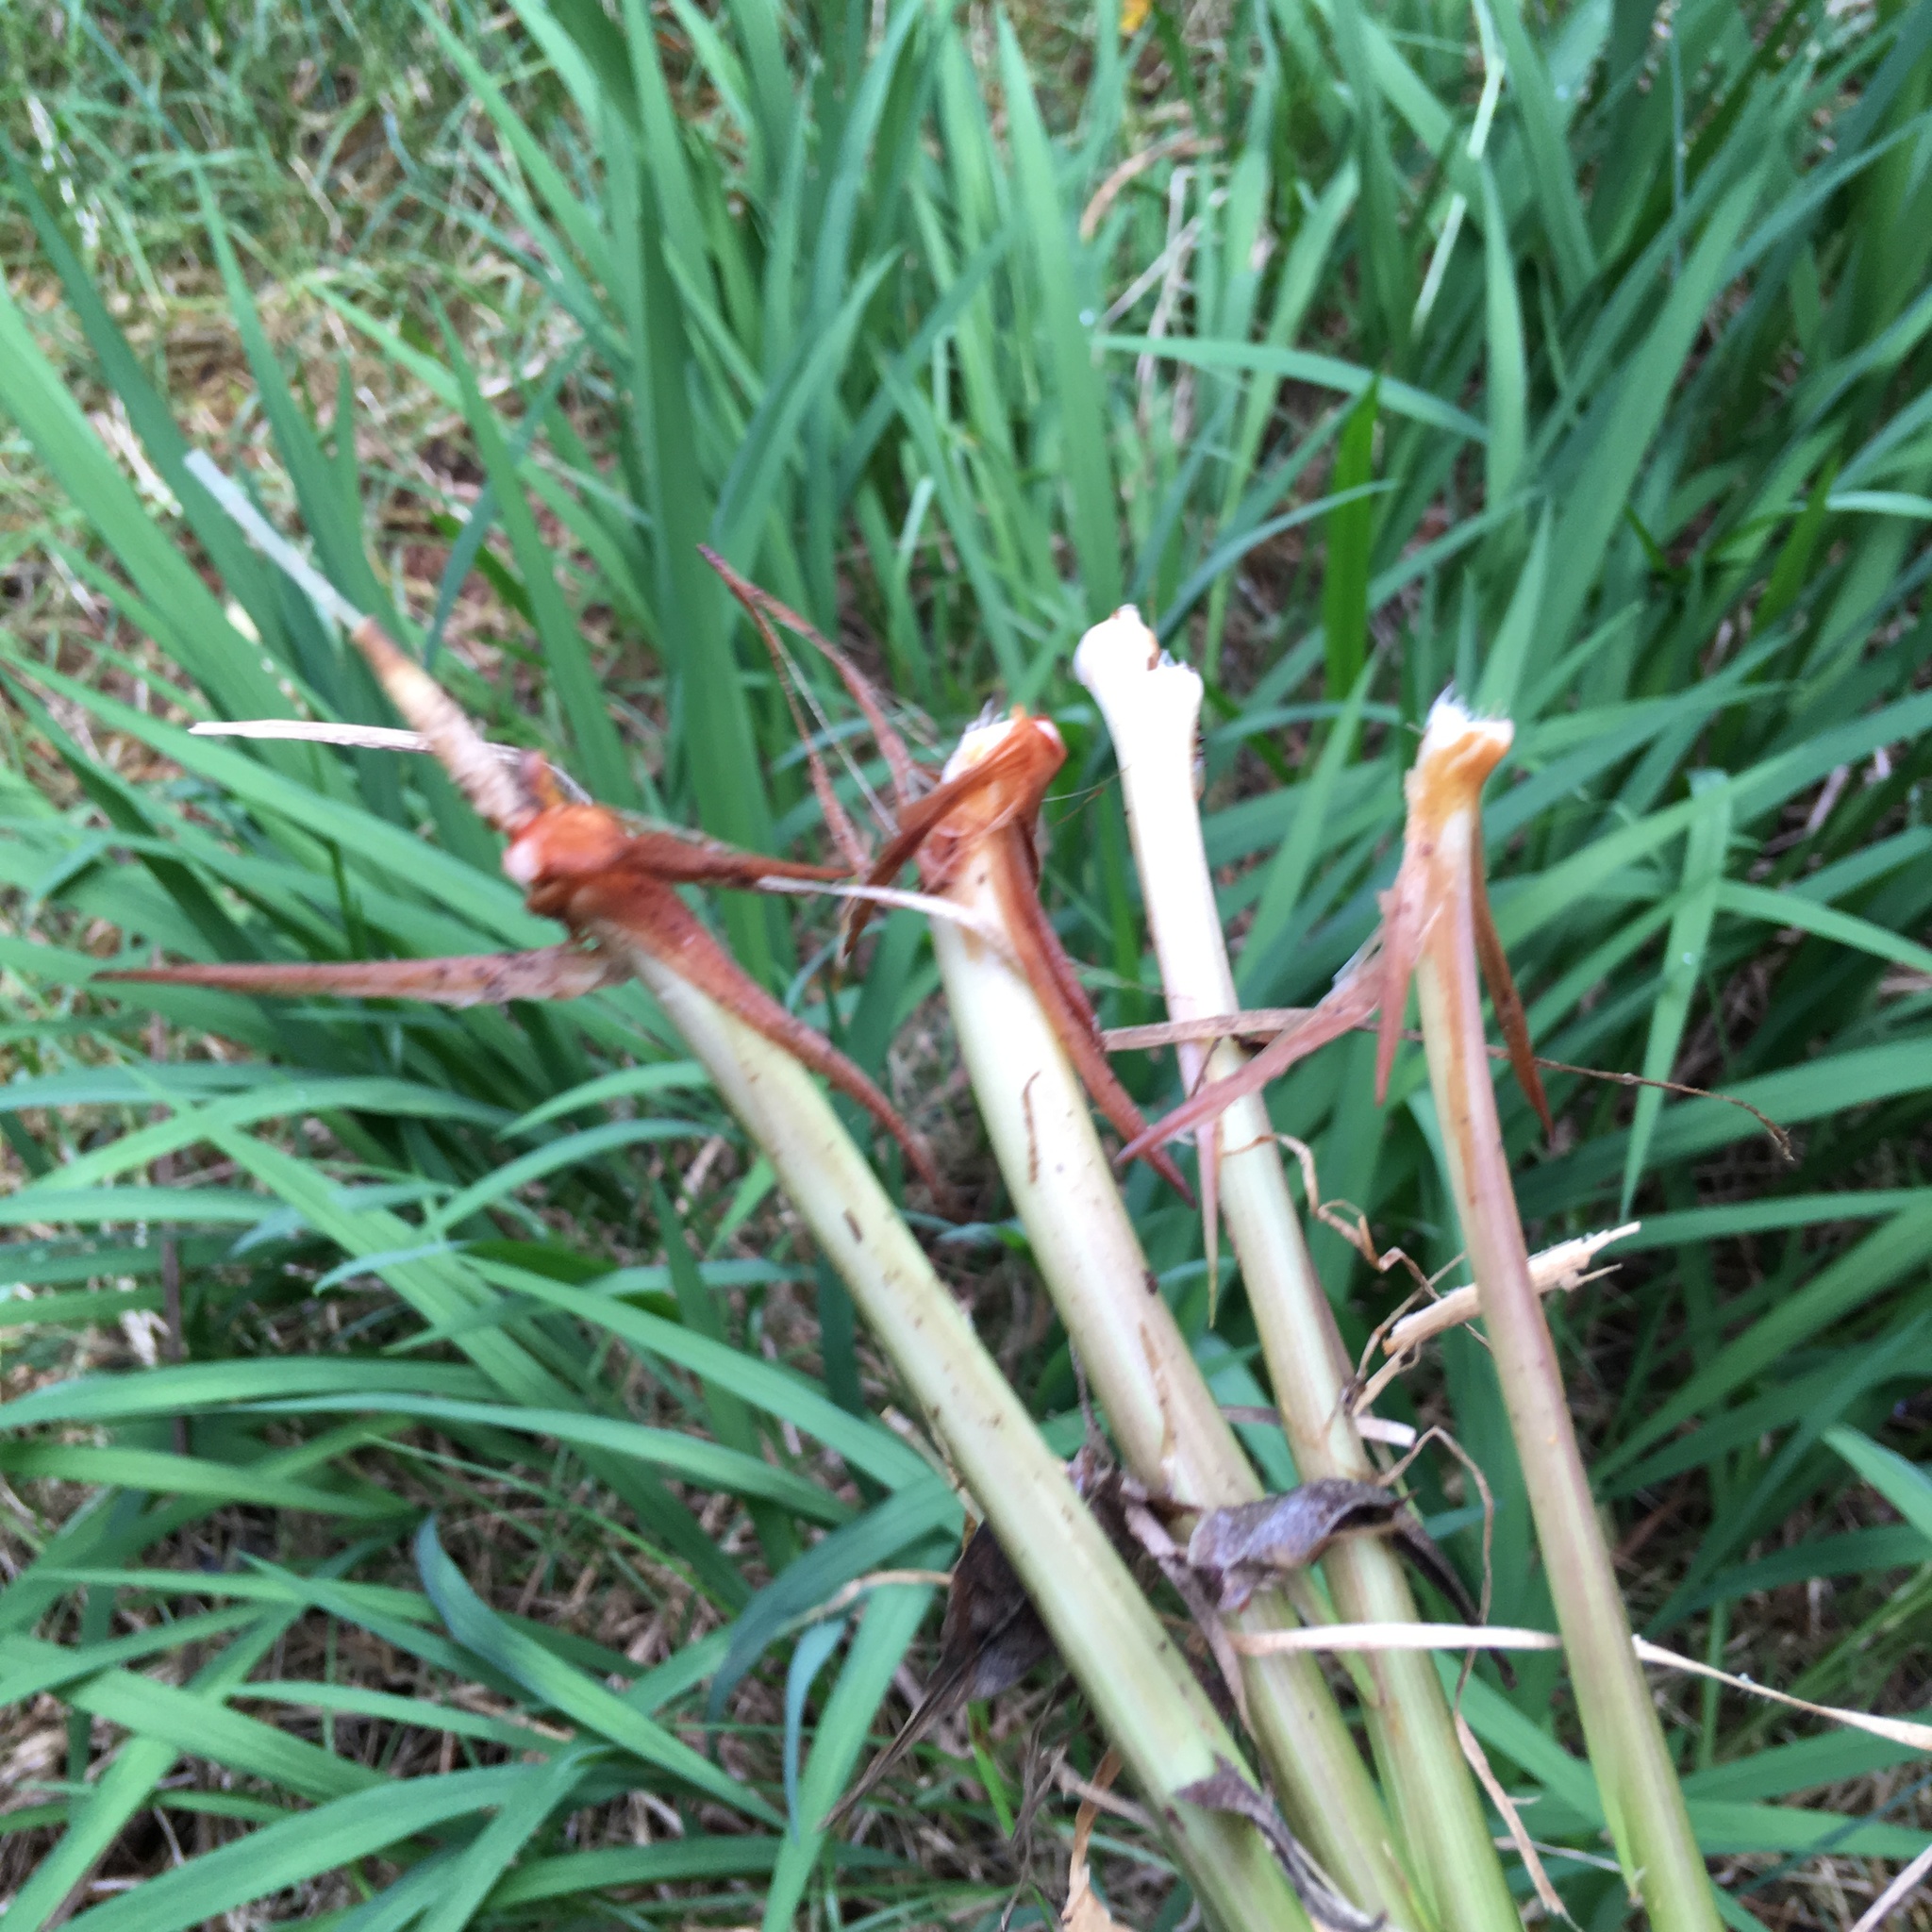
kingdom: Plantae
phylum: Tracheophyta
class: Liliopsida
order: Asparagales
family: Iridaceae
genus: Crocosmia
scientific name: Crocosmia crocosmiiflora
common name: Montbretia
